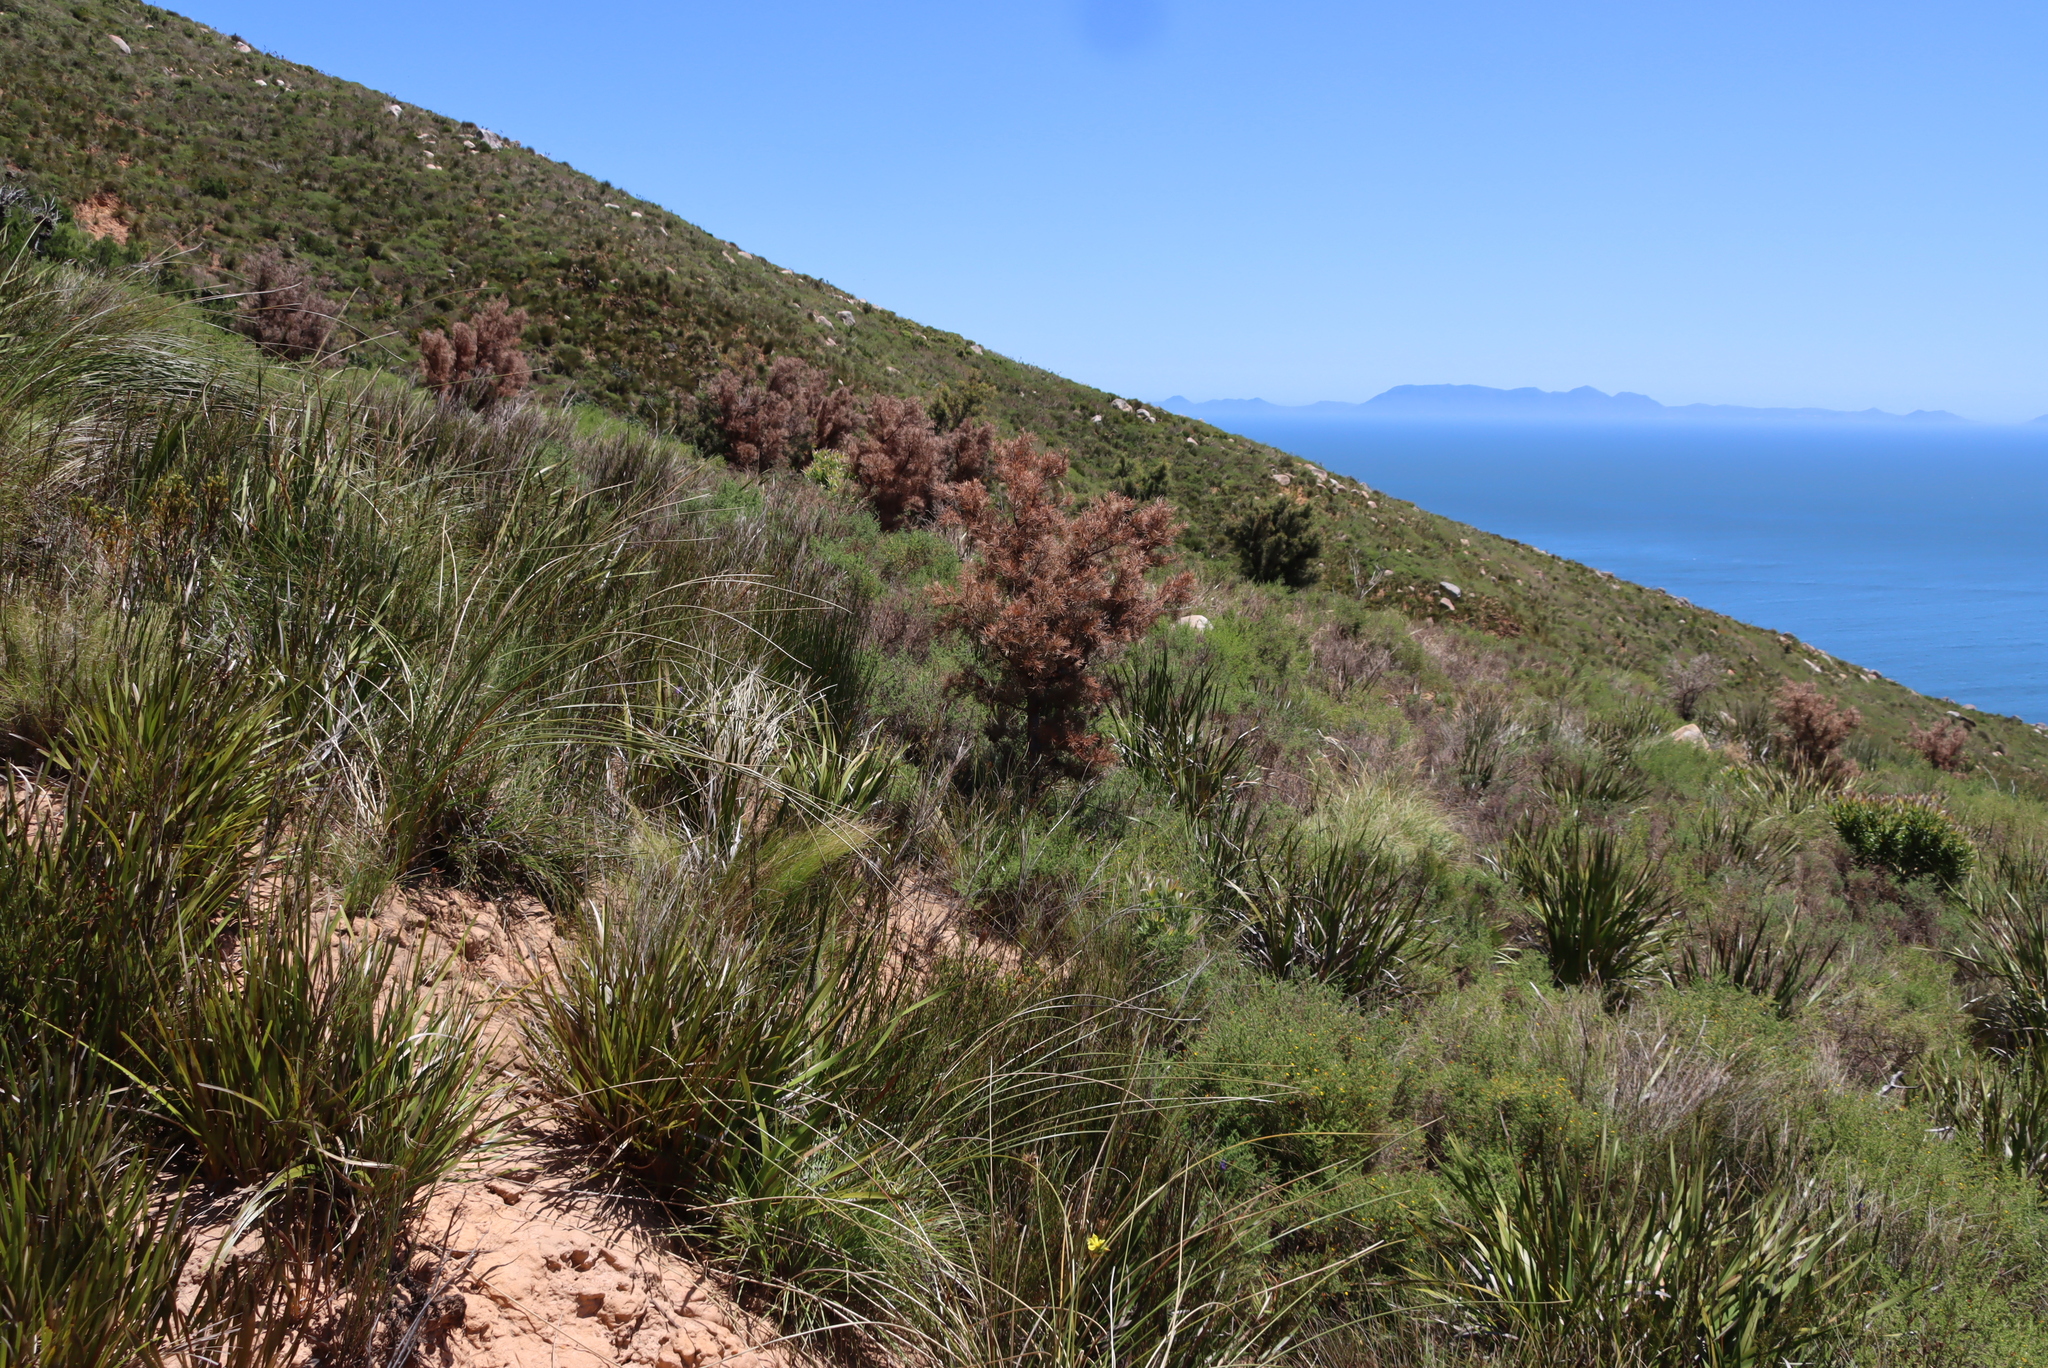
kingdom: Plantae
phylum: Tracheophyta
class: Magnoliopsida
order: Proteales
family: Proteaceae
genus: Hakea
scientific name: Hakea sericea
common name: Needle bush
